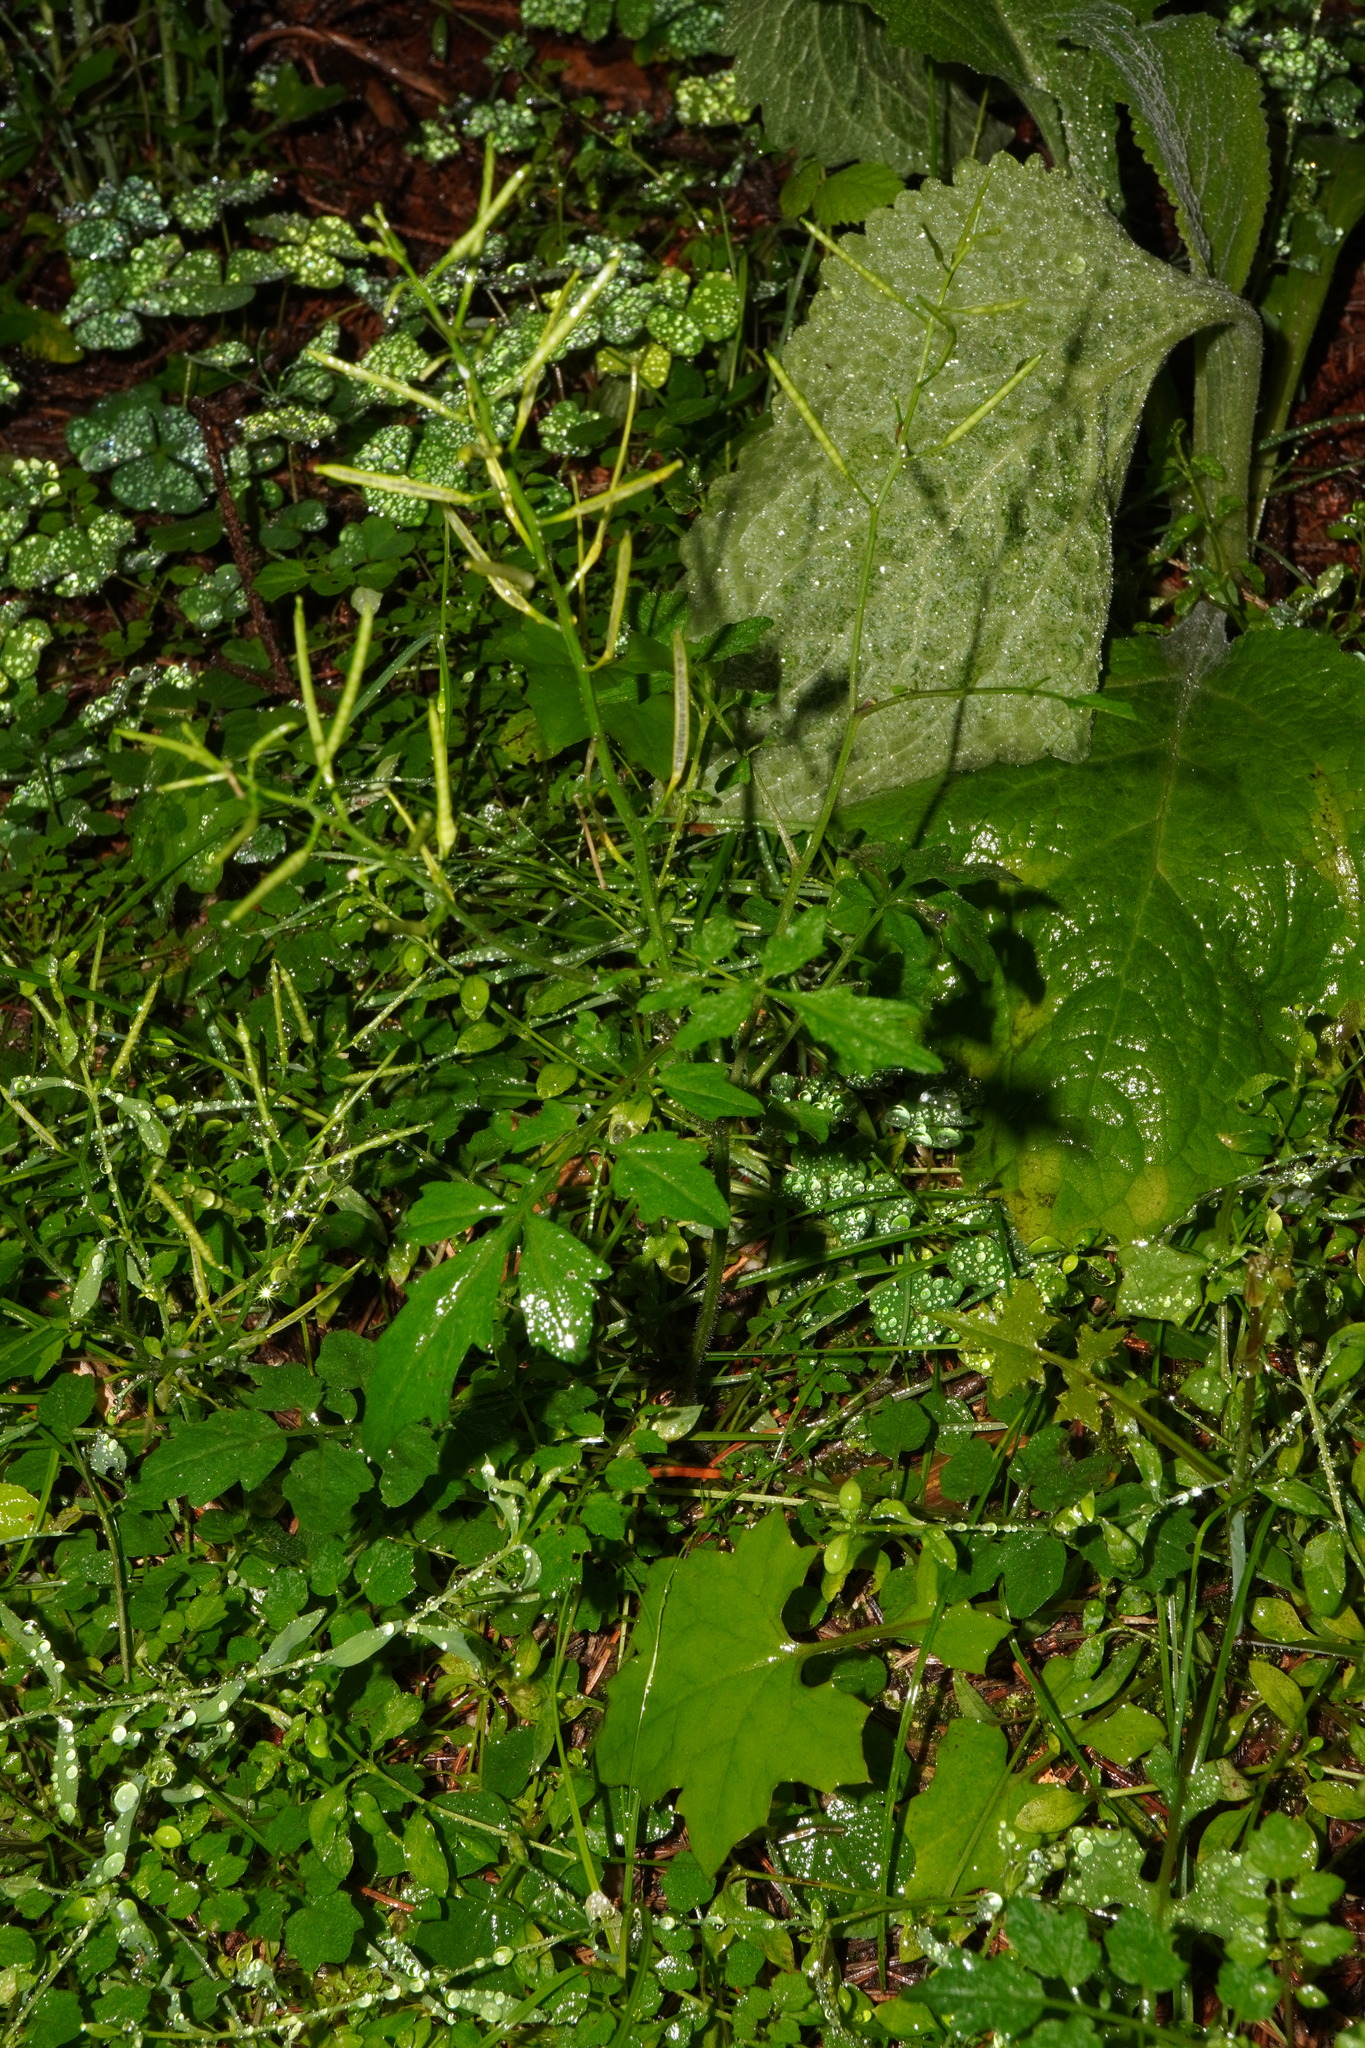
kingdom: Plantae
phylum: Tracheophyta
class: Magnoliopsida
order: Brassicales
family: Brassicaceae
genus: Cardamine
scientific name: Cardamine flexuosa
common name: Woodland bittercress
